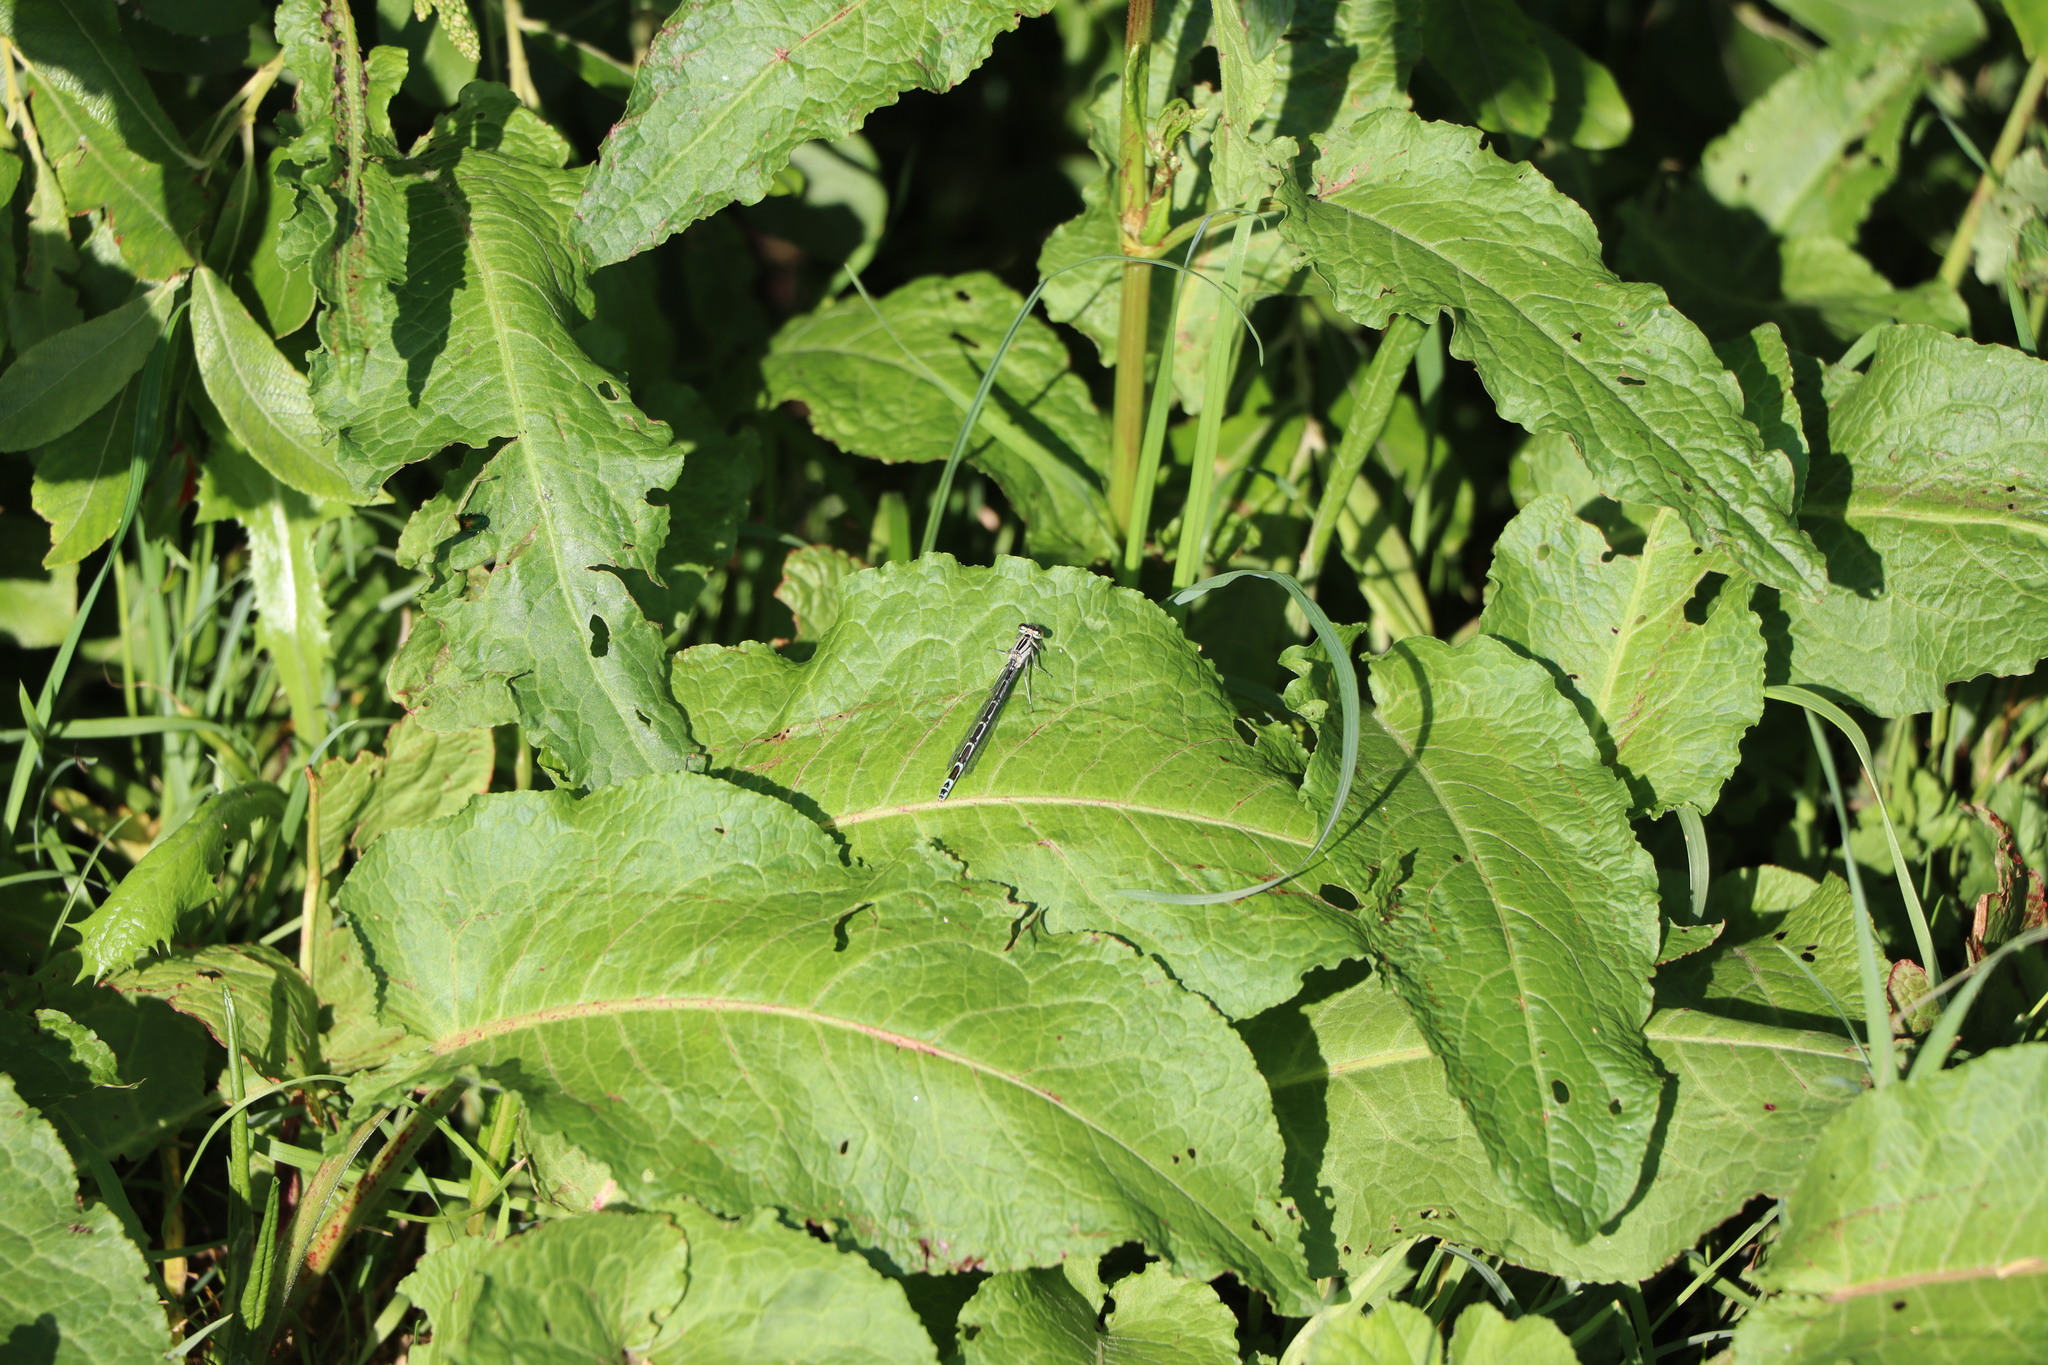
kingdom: Animalia
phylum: Arthropoda
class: Insecta
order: Odonata
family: Coenagrionidae
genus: Enallagma
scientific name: Enallagma cyathigerum
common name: Common blue damselfly
